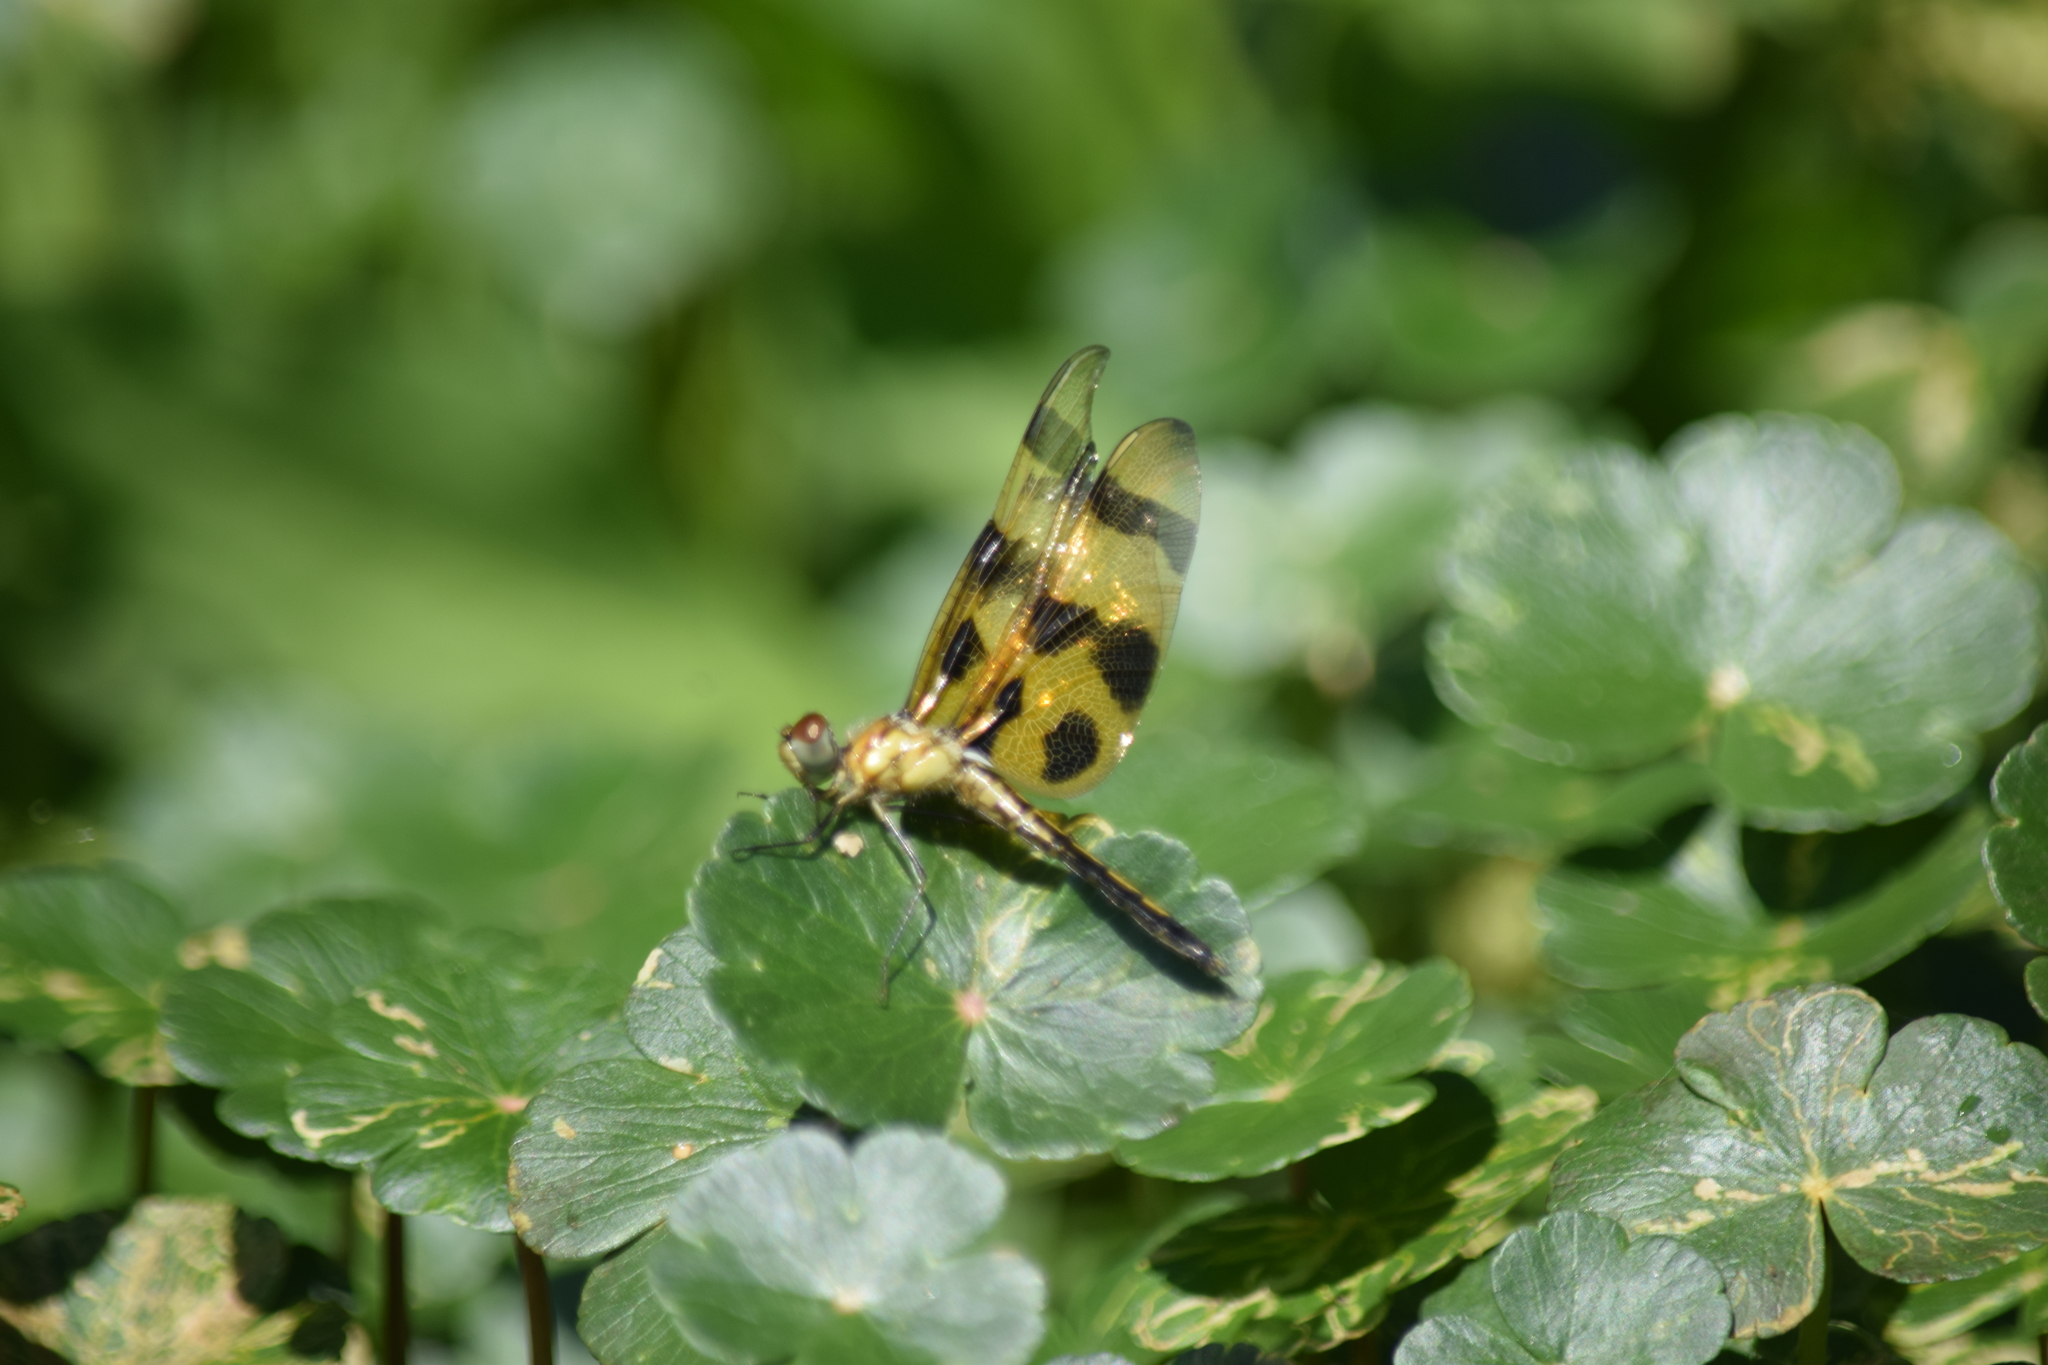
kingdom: Animalia
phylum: Arthropoda
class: Insecta
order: Odonata
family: Libellulidae
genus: Celithemis
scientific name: Celithemis eponina
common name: Halloween pennant
